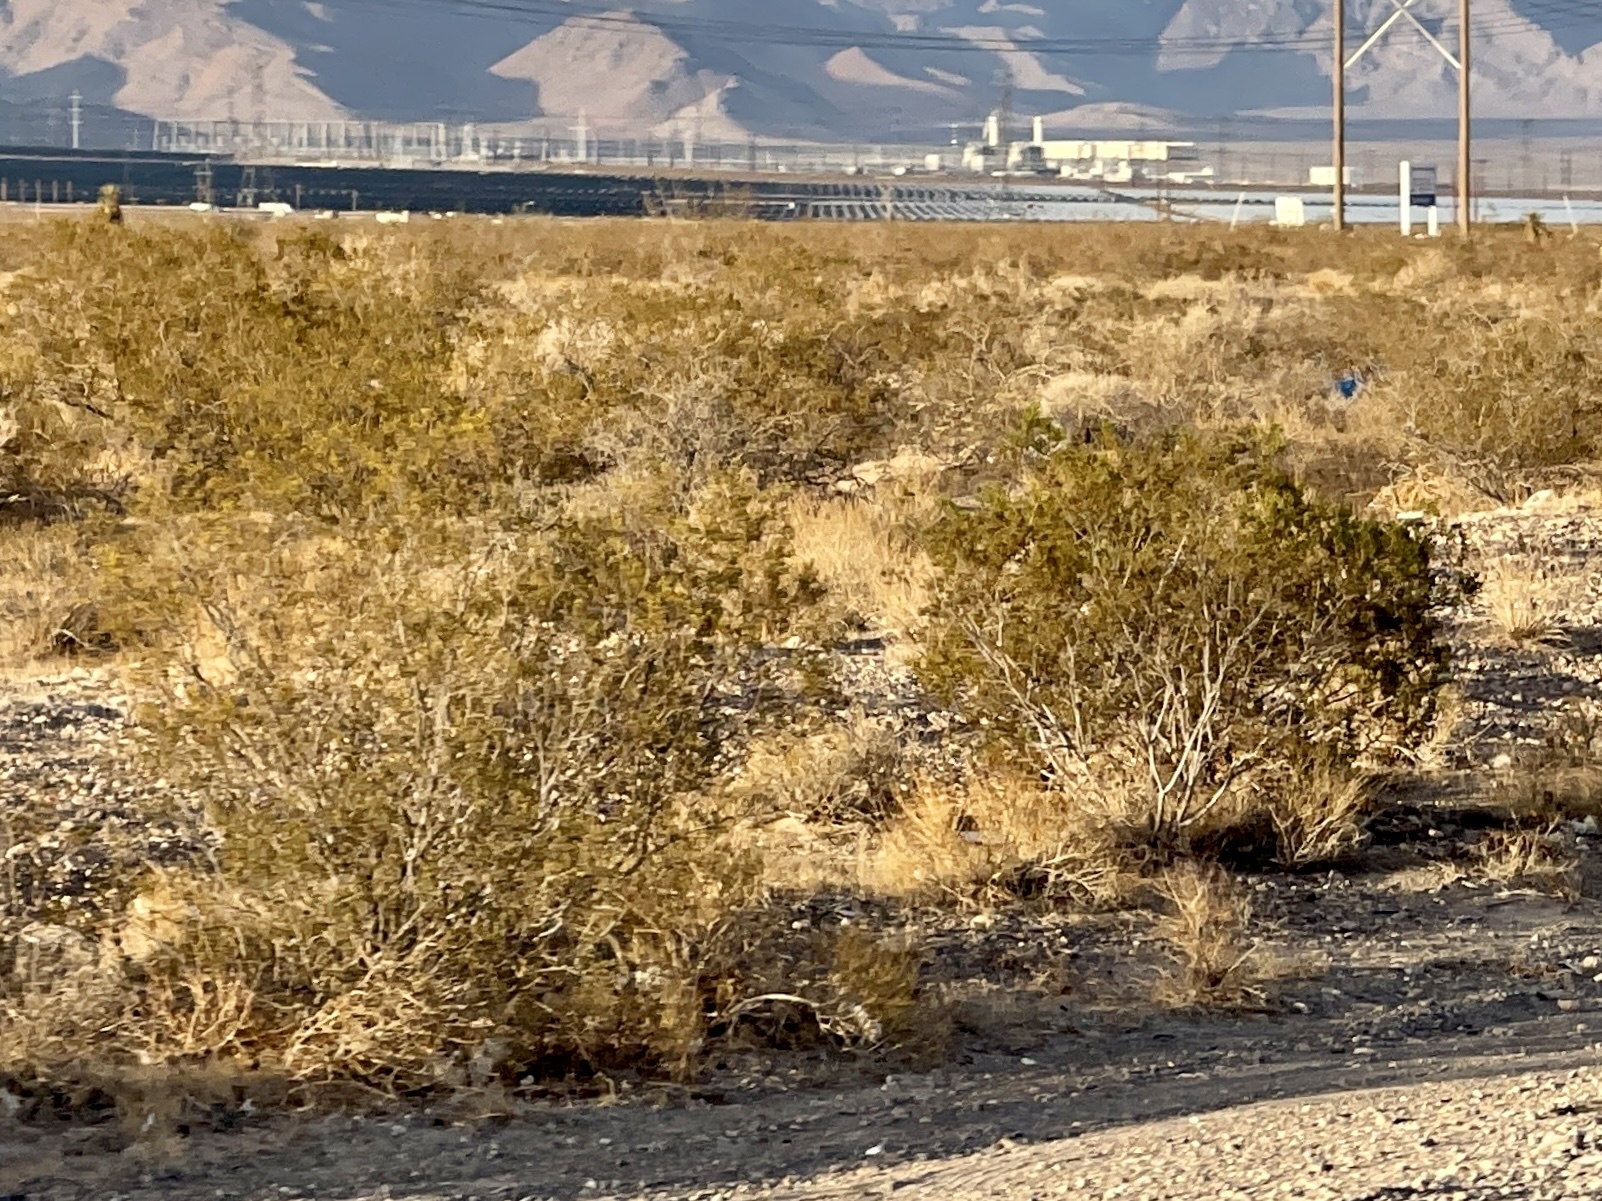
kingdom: Plantae
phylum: Tracheophyta
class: Magnoliopsida
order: Zygophyllales
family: Zygophyllaceae
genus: Larrea
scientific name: Larrea tridentata
